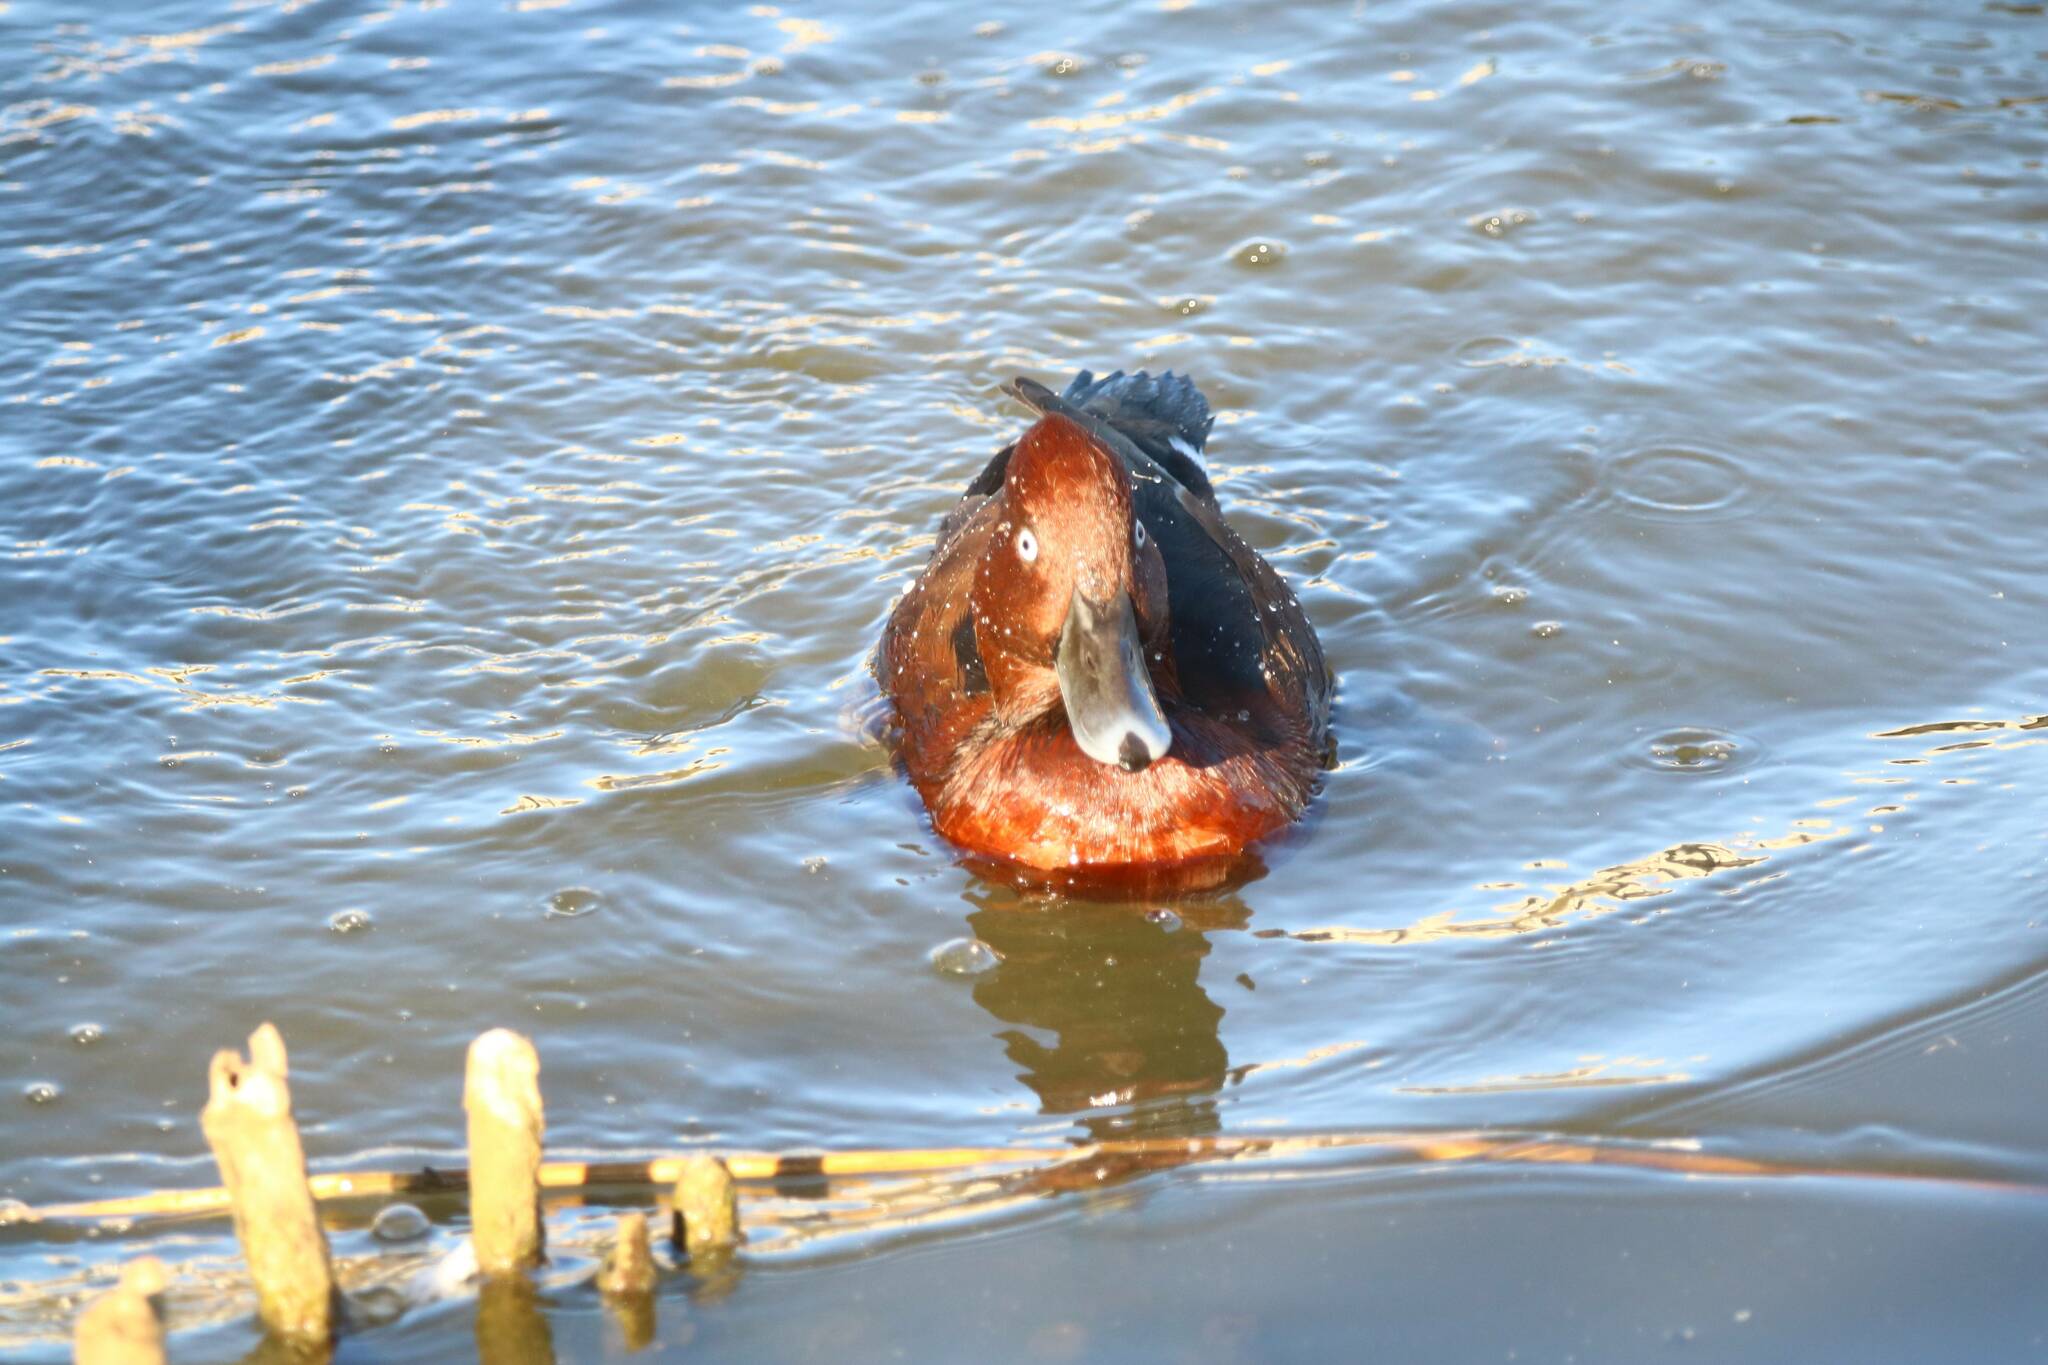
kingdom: Animalia
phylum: Chordata
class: Aves
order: Anseriformes
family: Anatidae
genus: Aythya
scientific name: Aythya nyroca
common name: Ferruginous duck
